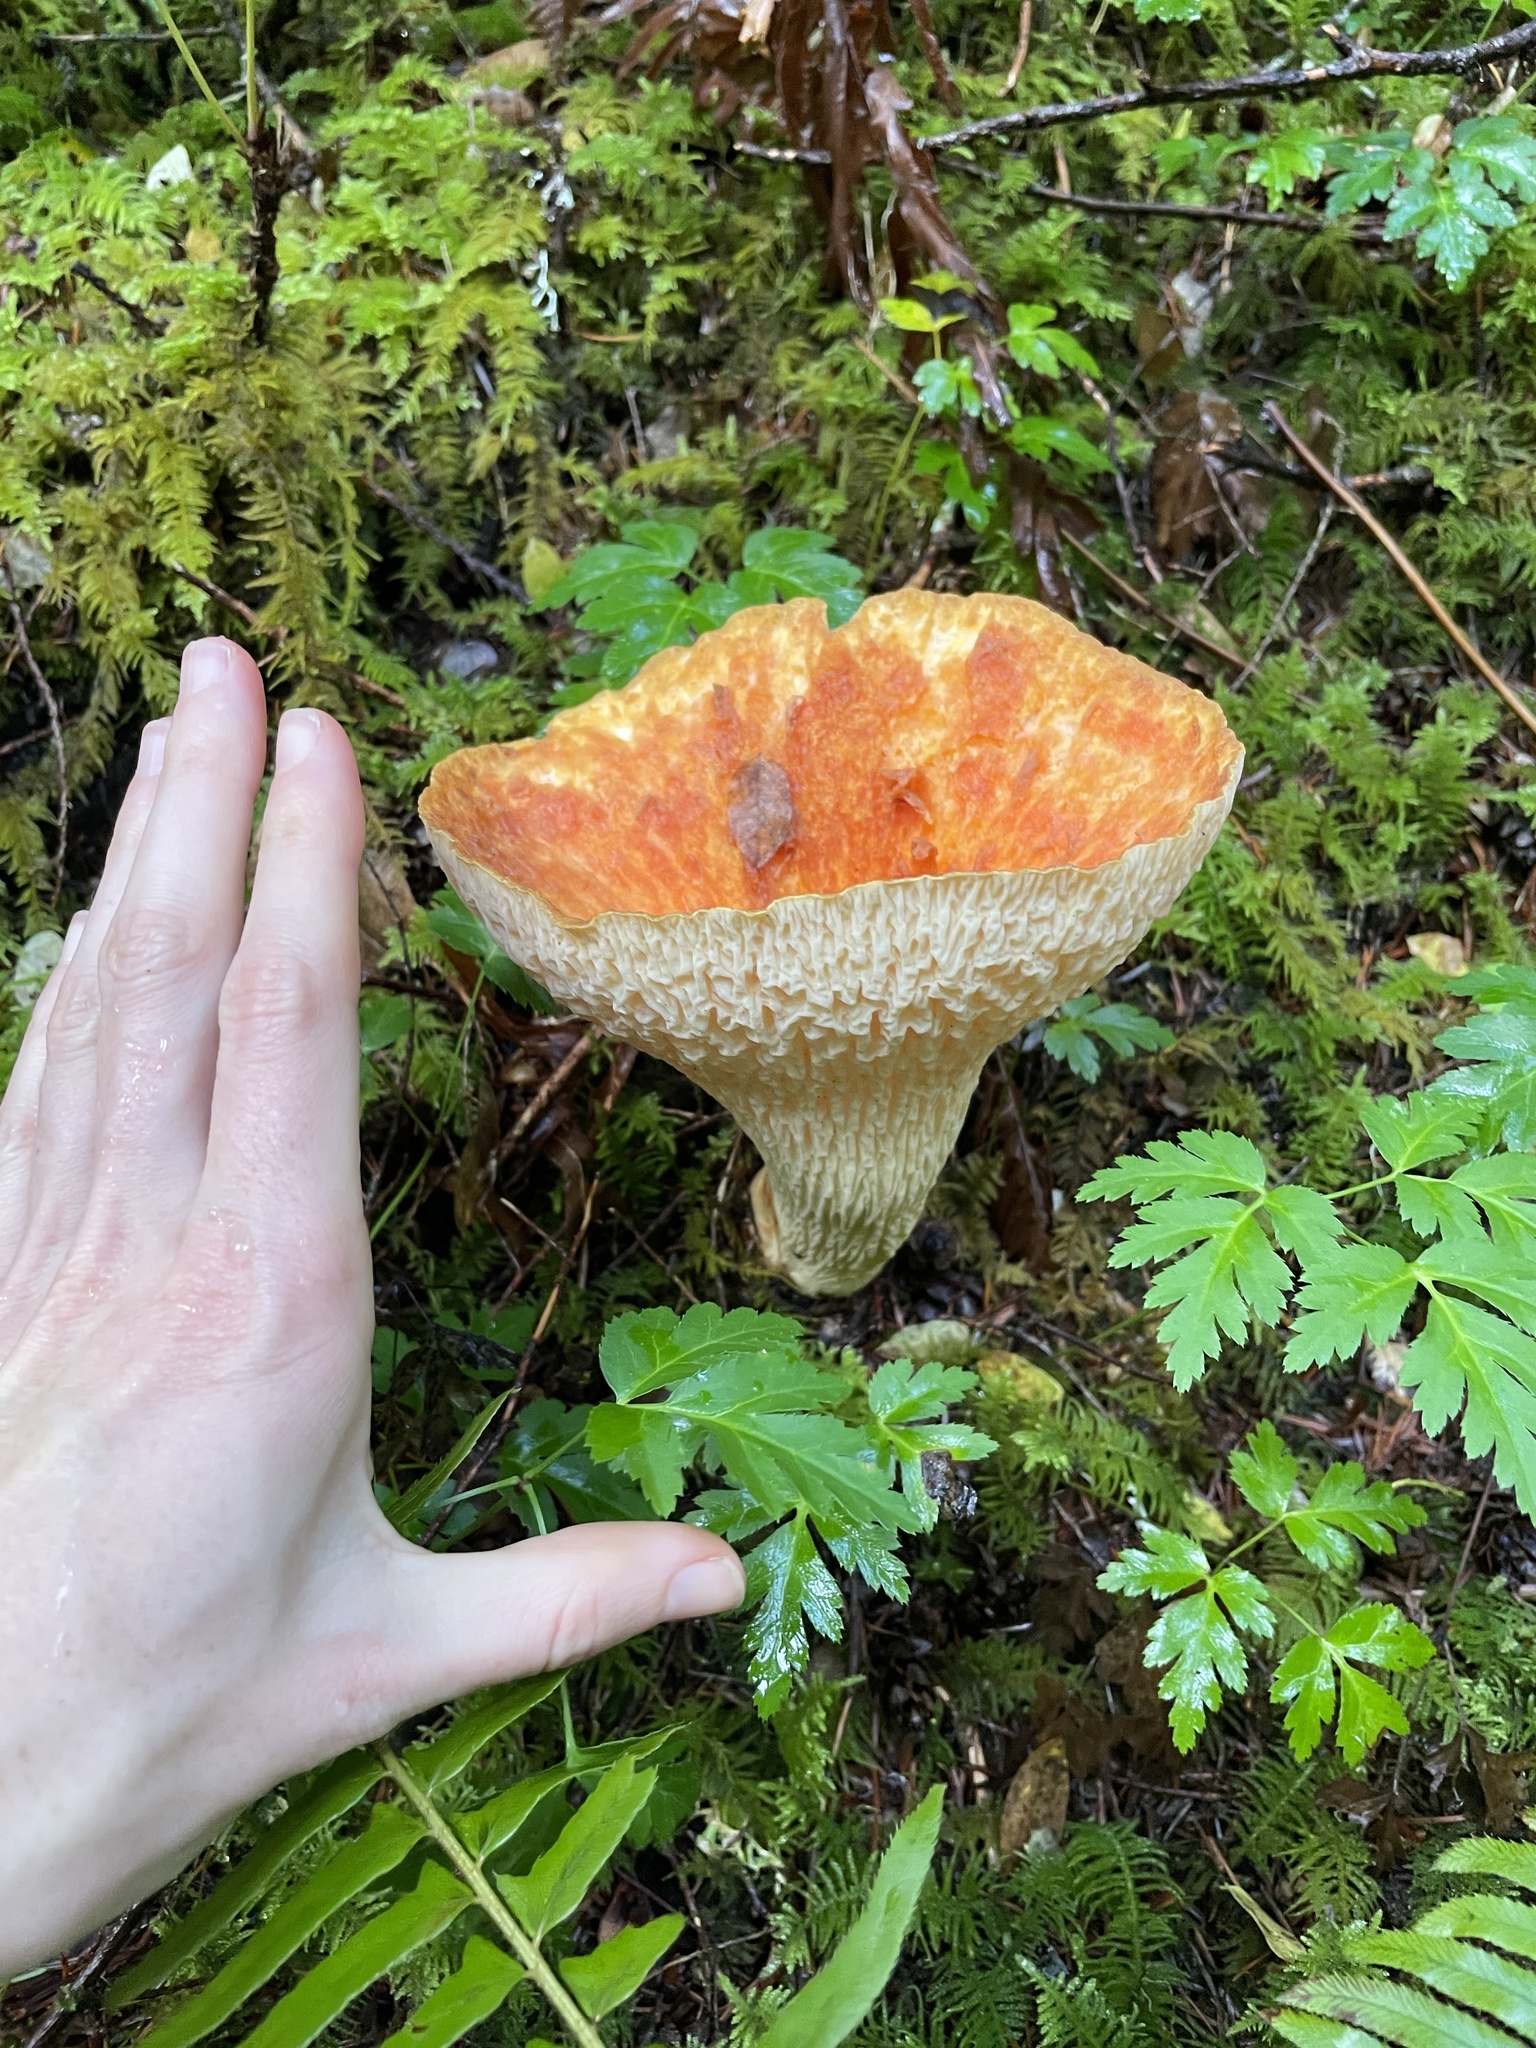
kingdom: Fungi
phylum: Basidiomycota
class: Agaricomycetes
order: Gomphales
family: Gomphaceae
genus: Turbinellus
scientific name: Turbinellus floccosus
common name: Scaly chanterelle
